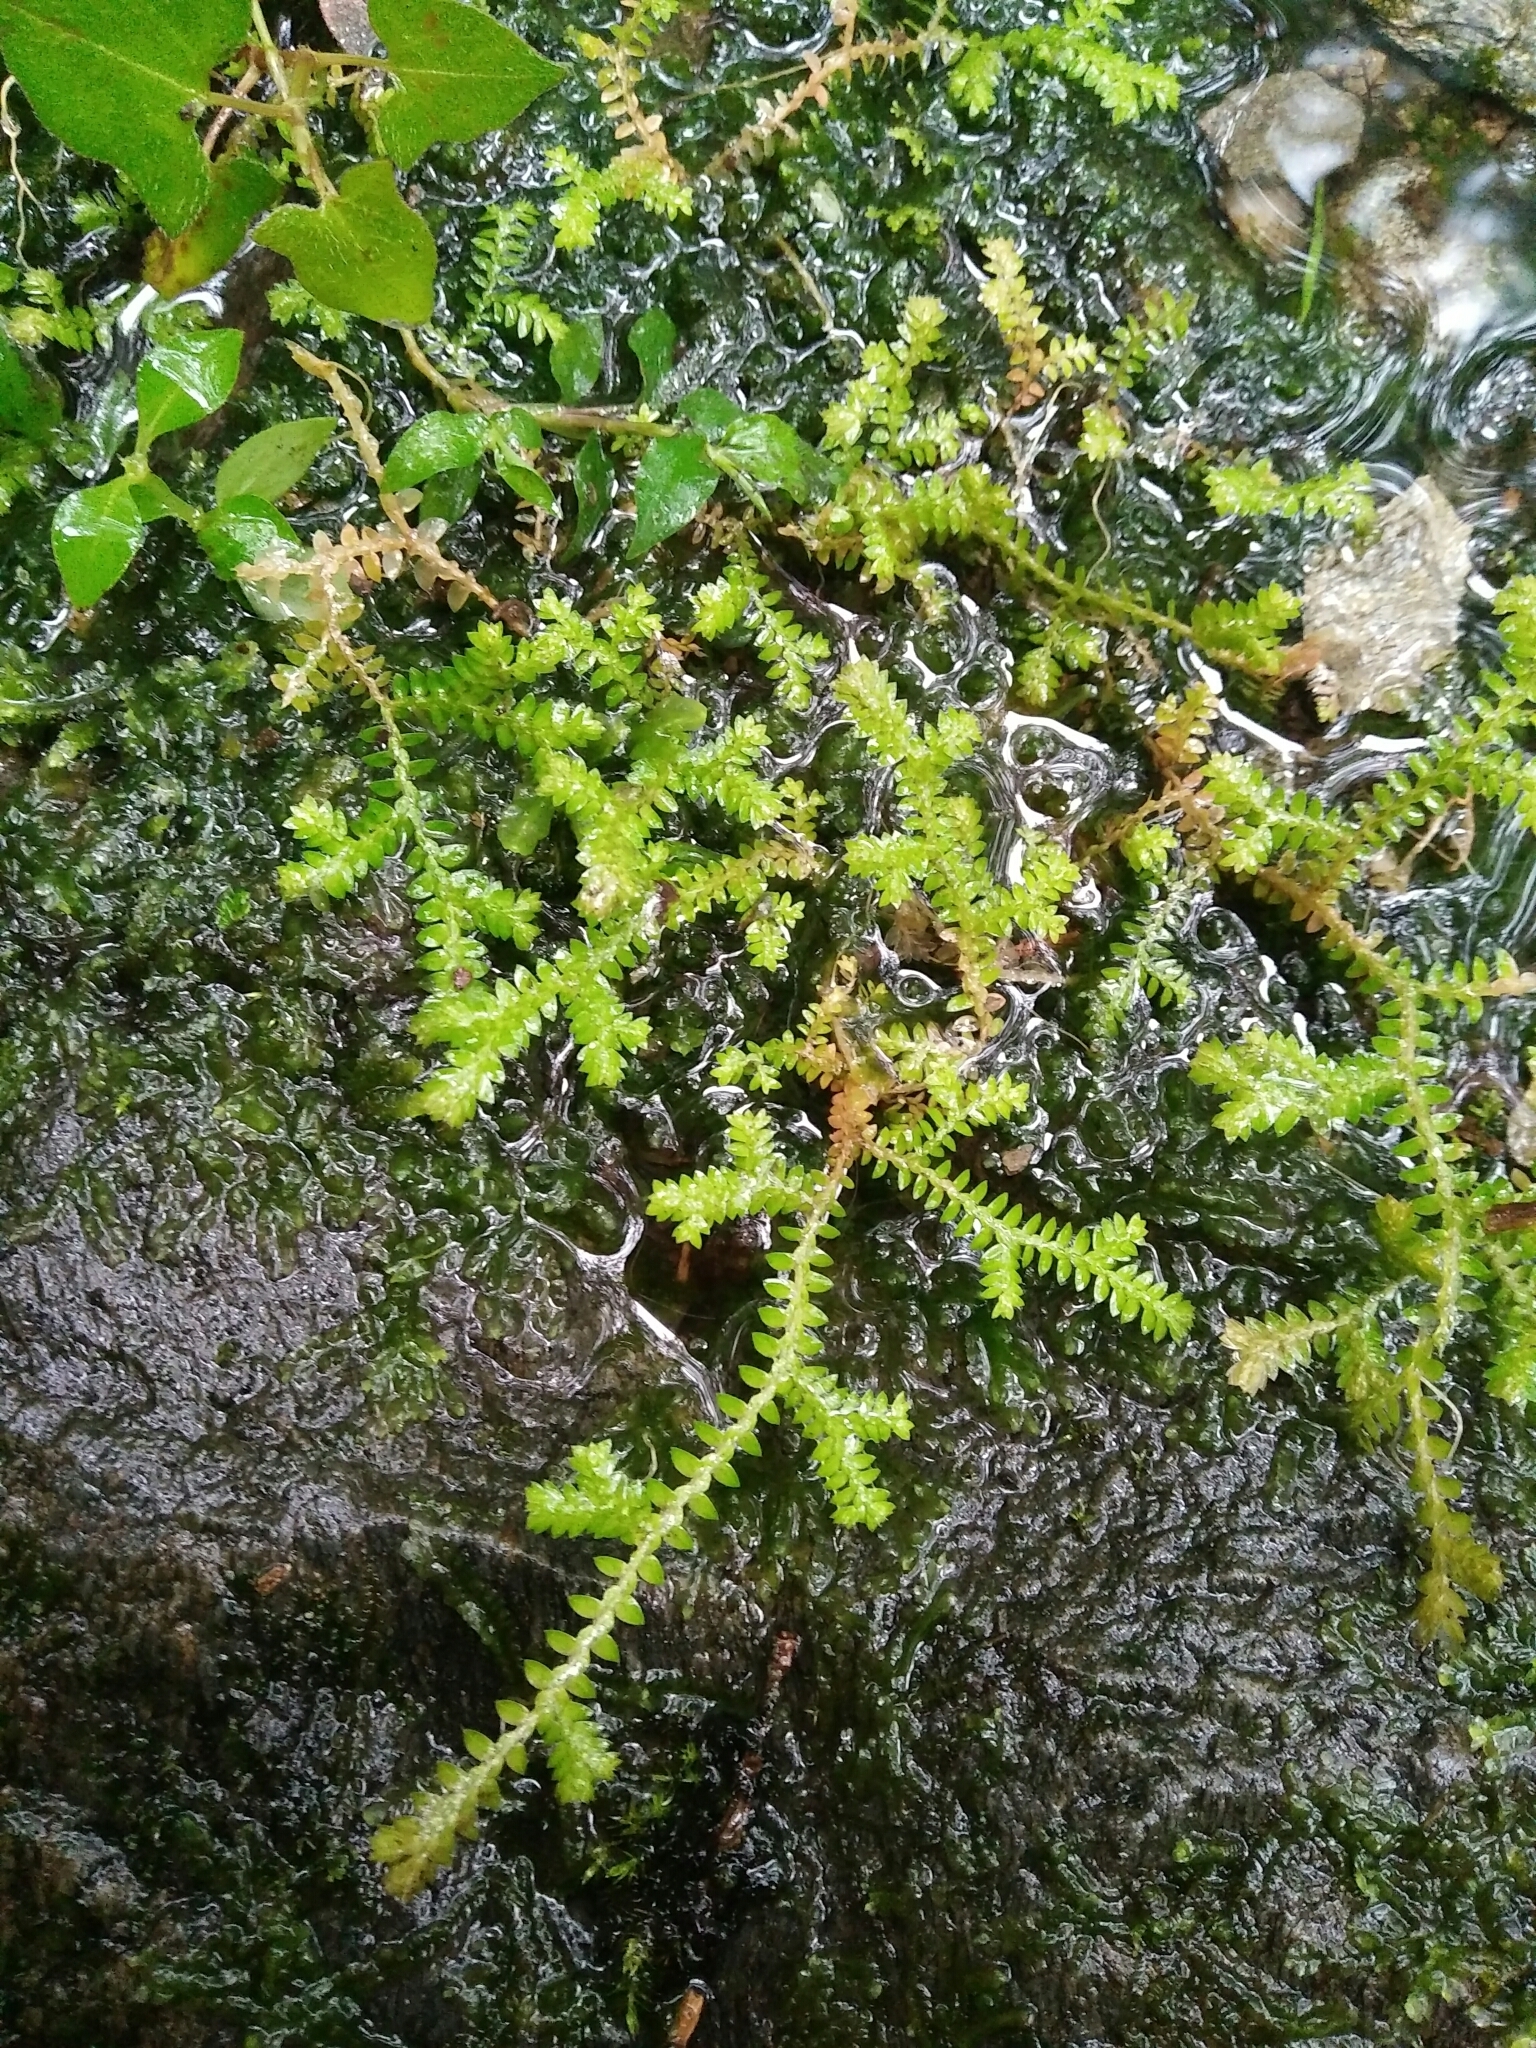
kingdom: Plantae
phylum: Tracheophyta
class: Lycopodiopsida
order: Selaginellales
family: Selaginellaceae
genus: Selaginella
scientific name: Selaginella remotifolia
